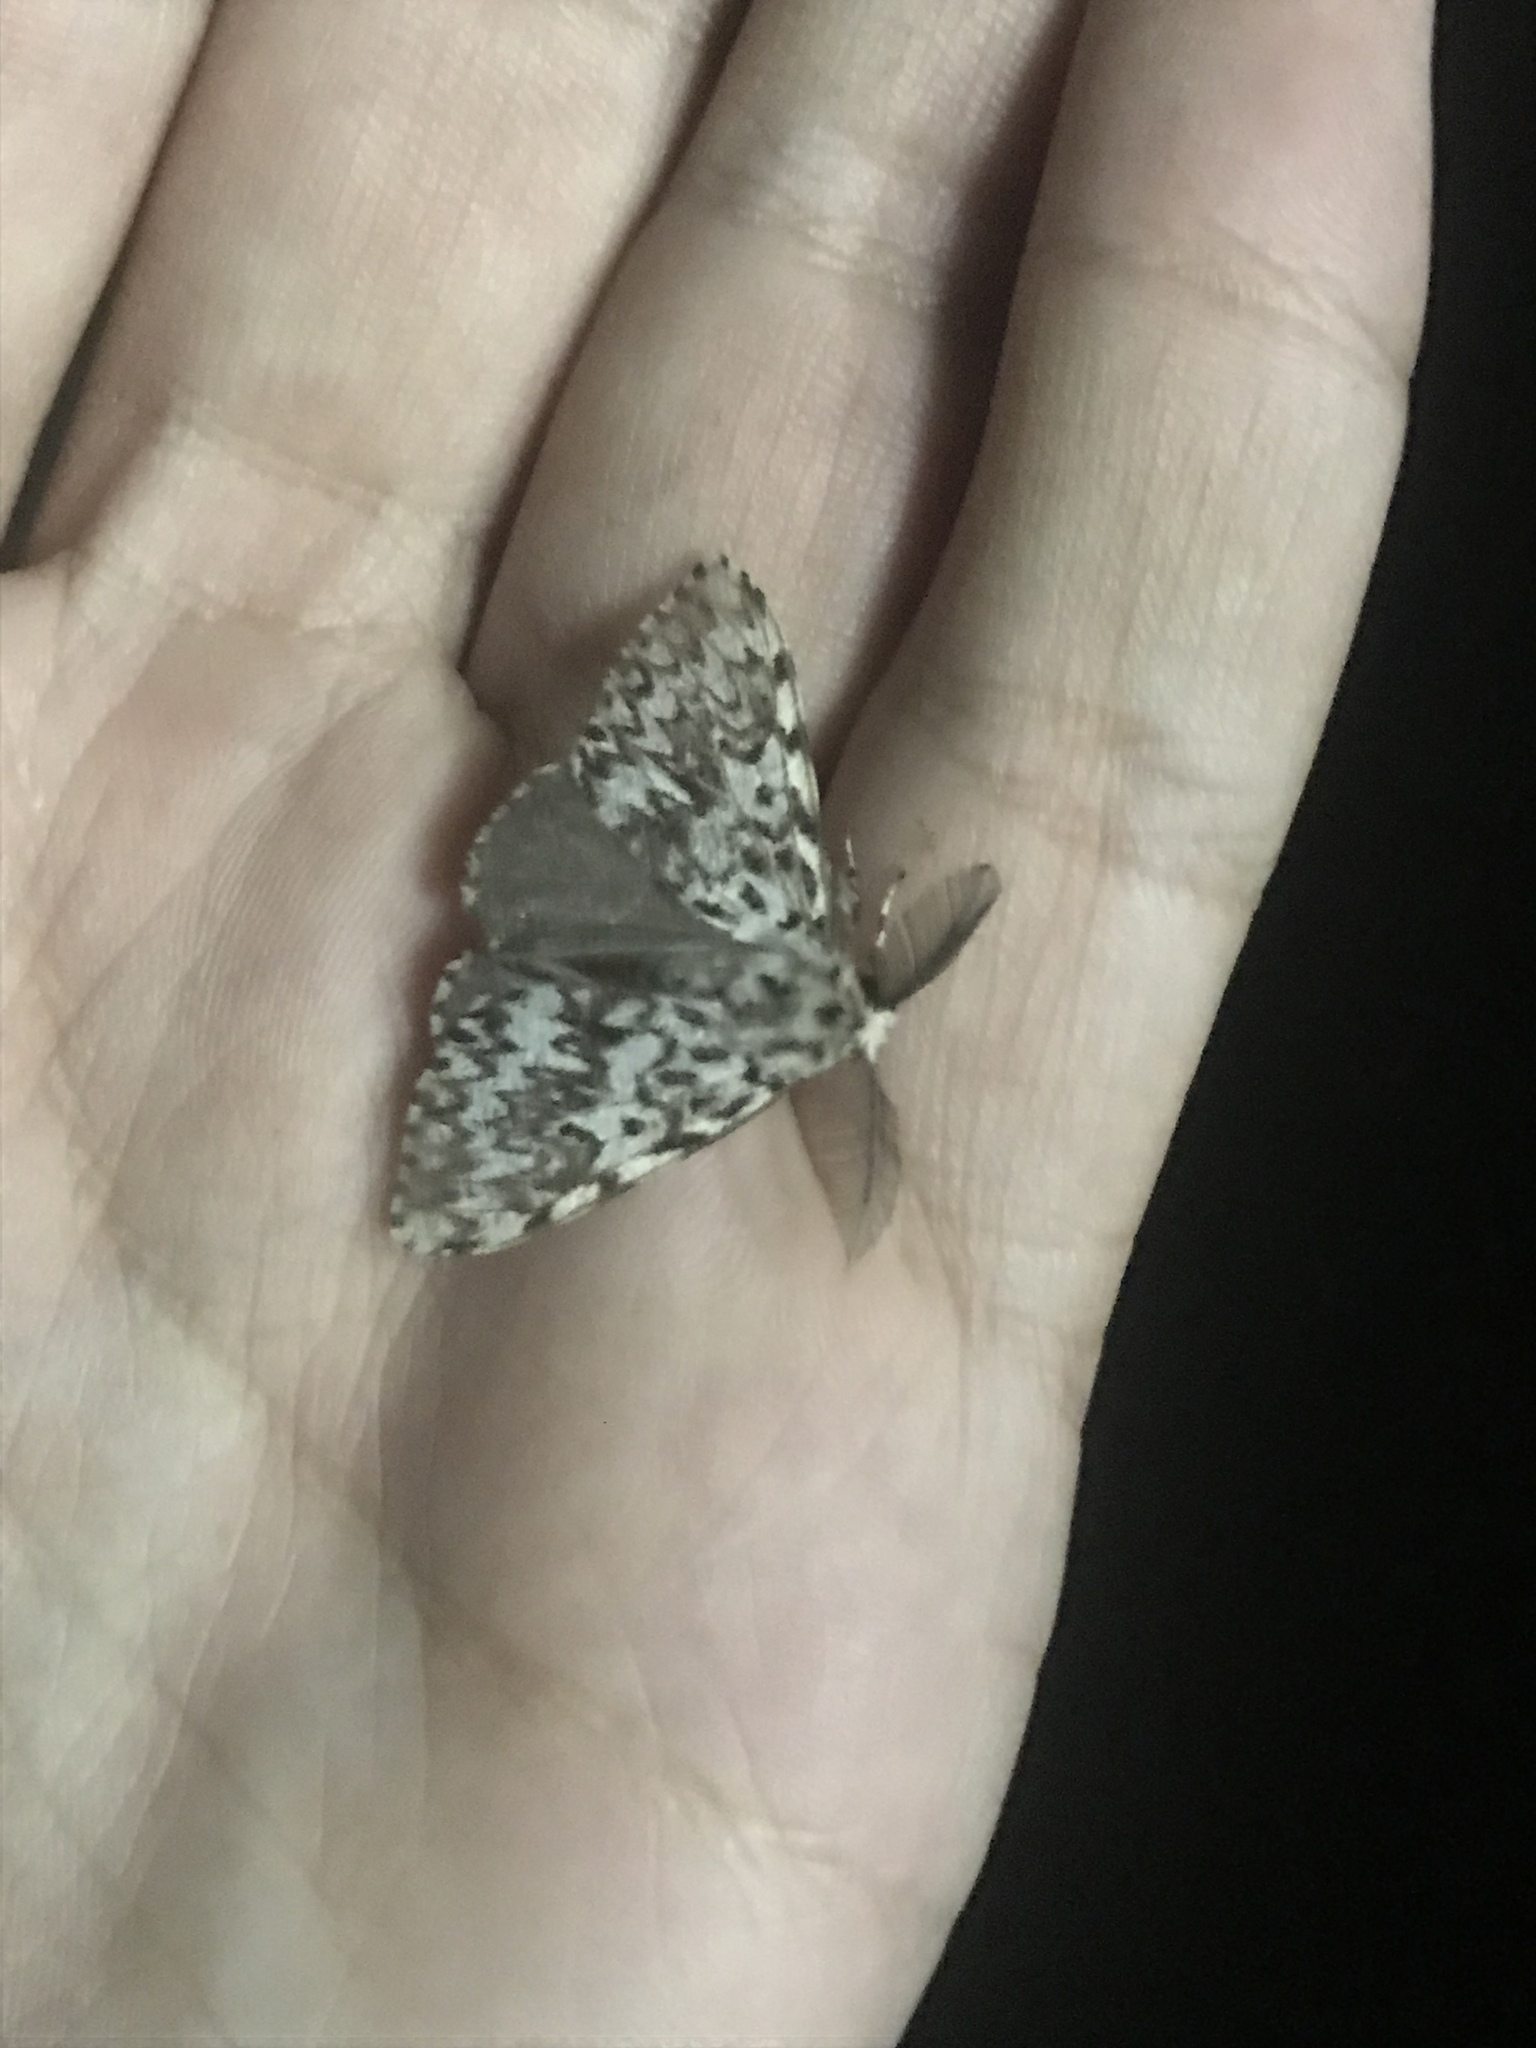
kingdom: Animalia
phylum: Arthropoda
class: Insecta
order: Lepidoptera
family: Erebidae
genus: Lymantria
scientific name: Lymantria monacha
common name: Black arches
